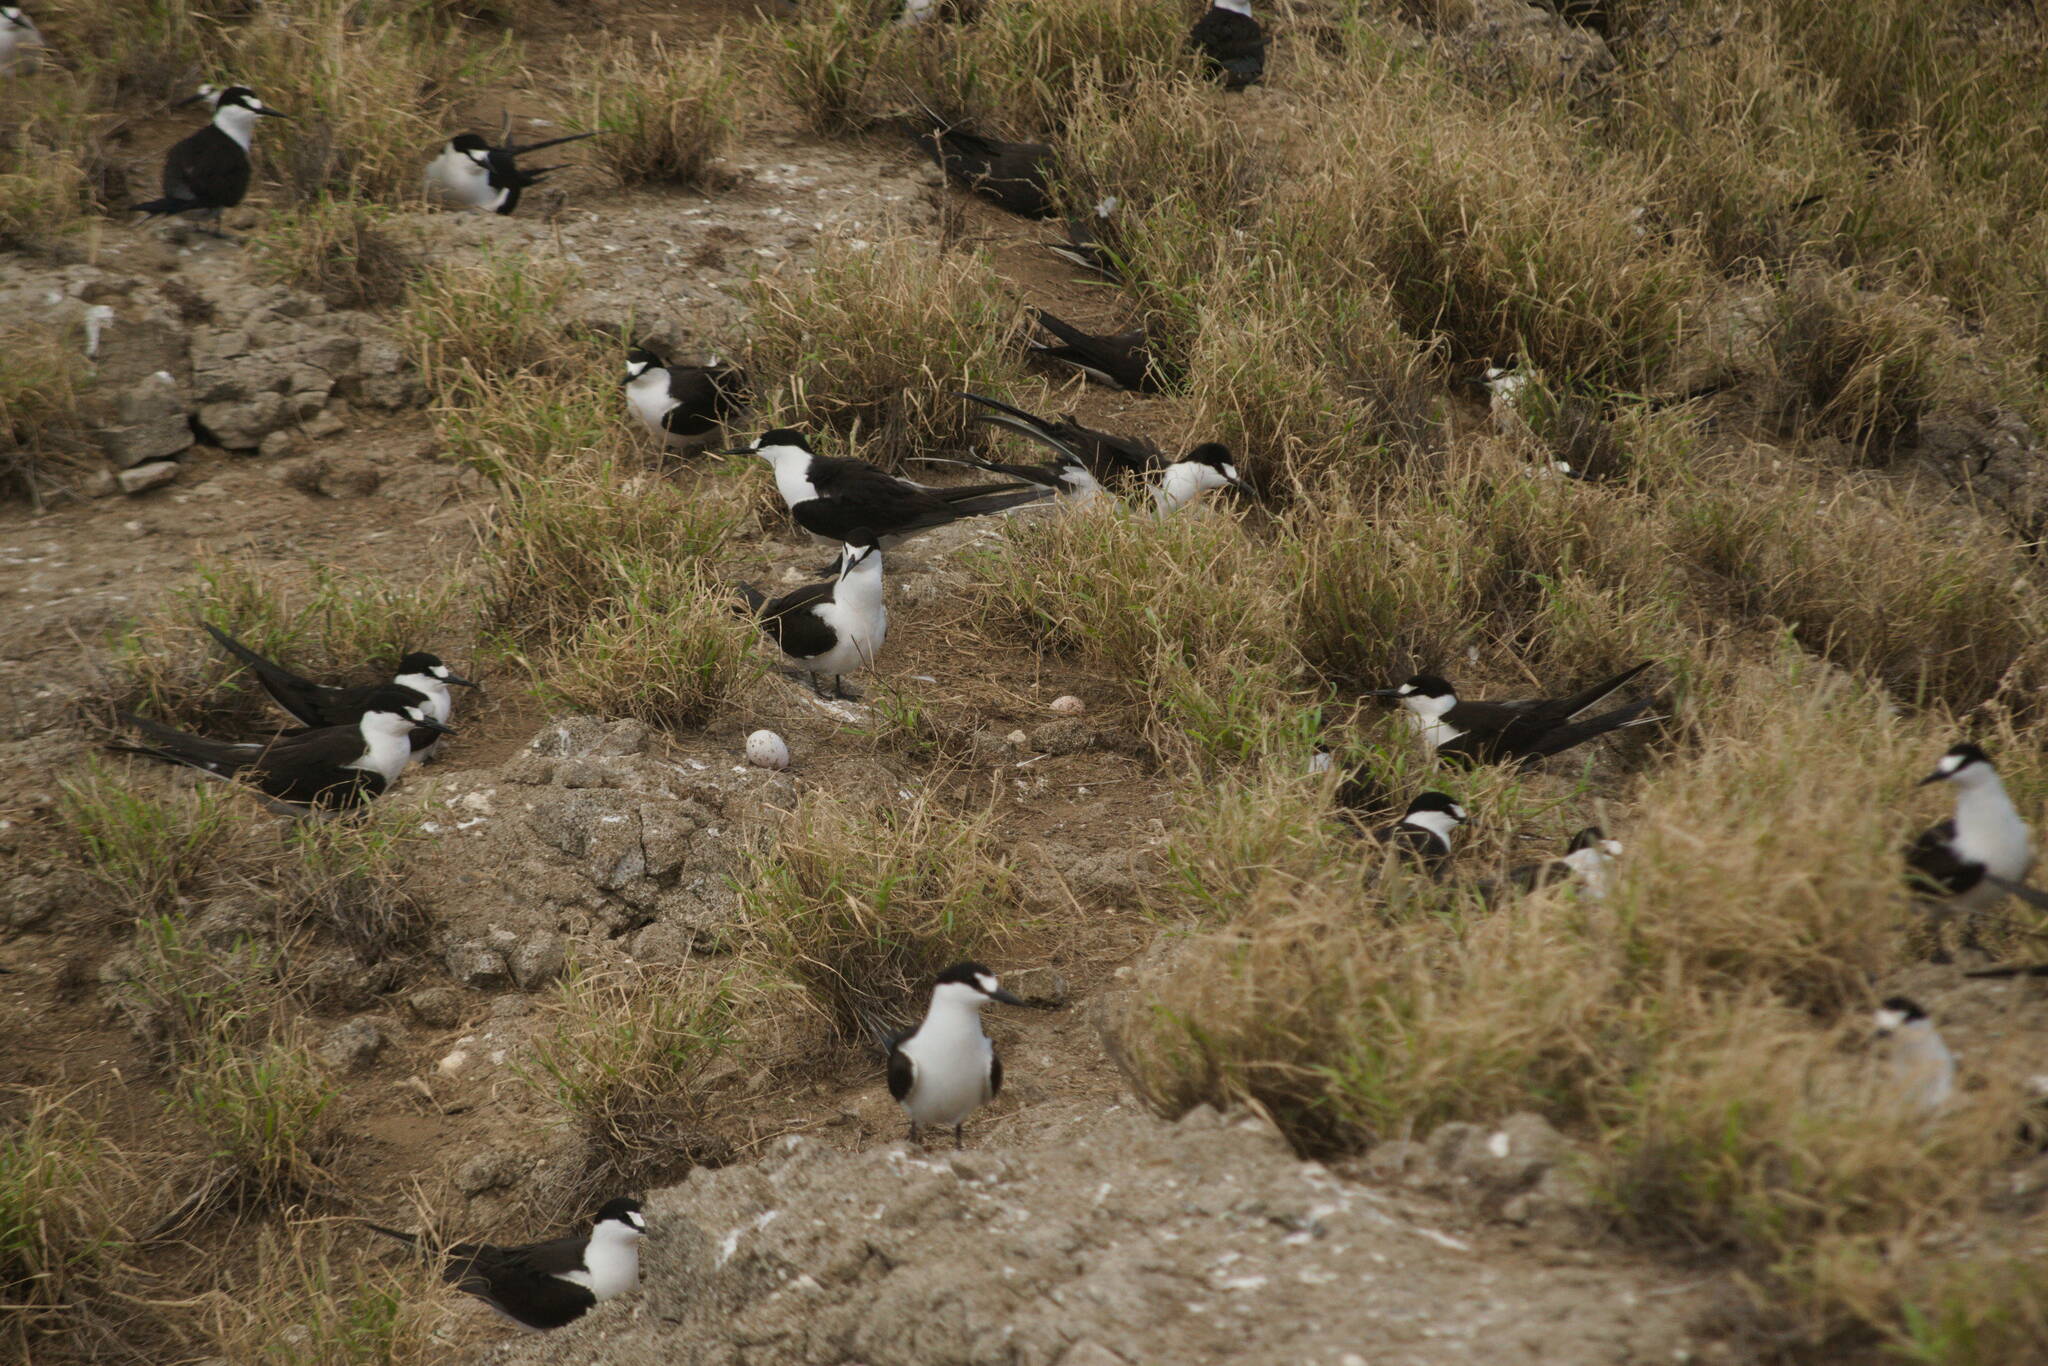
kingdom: Animalia
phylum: Chordata
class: Aves
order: Charadriiformes
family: Laridae
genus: Onychoprion
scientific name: Onychoprion fuscatus
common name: Sooty tern
